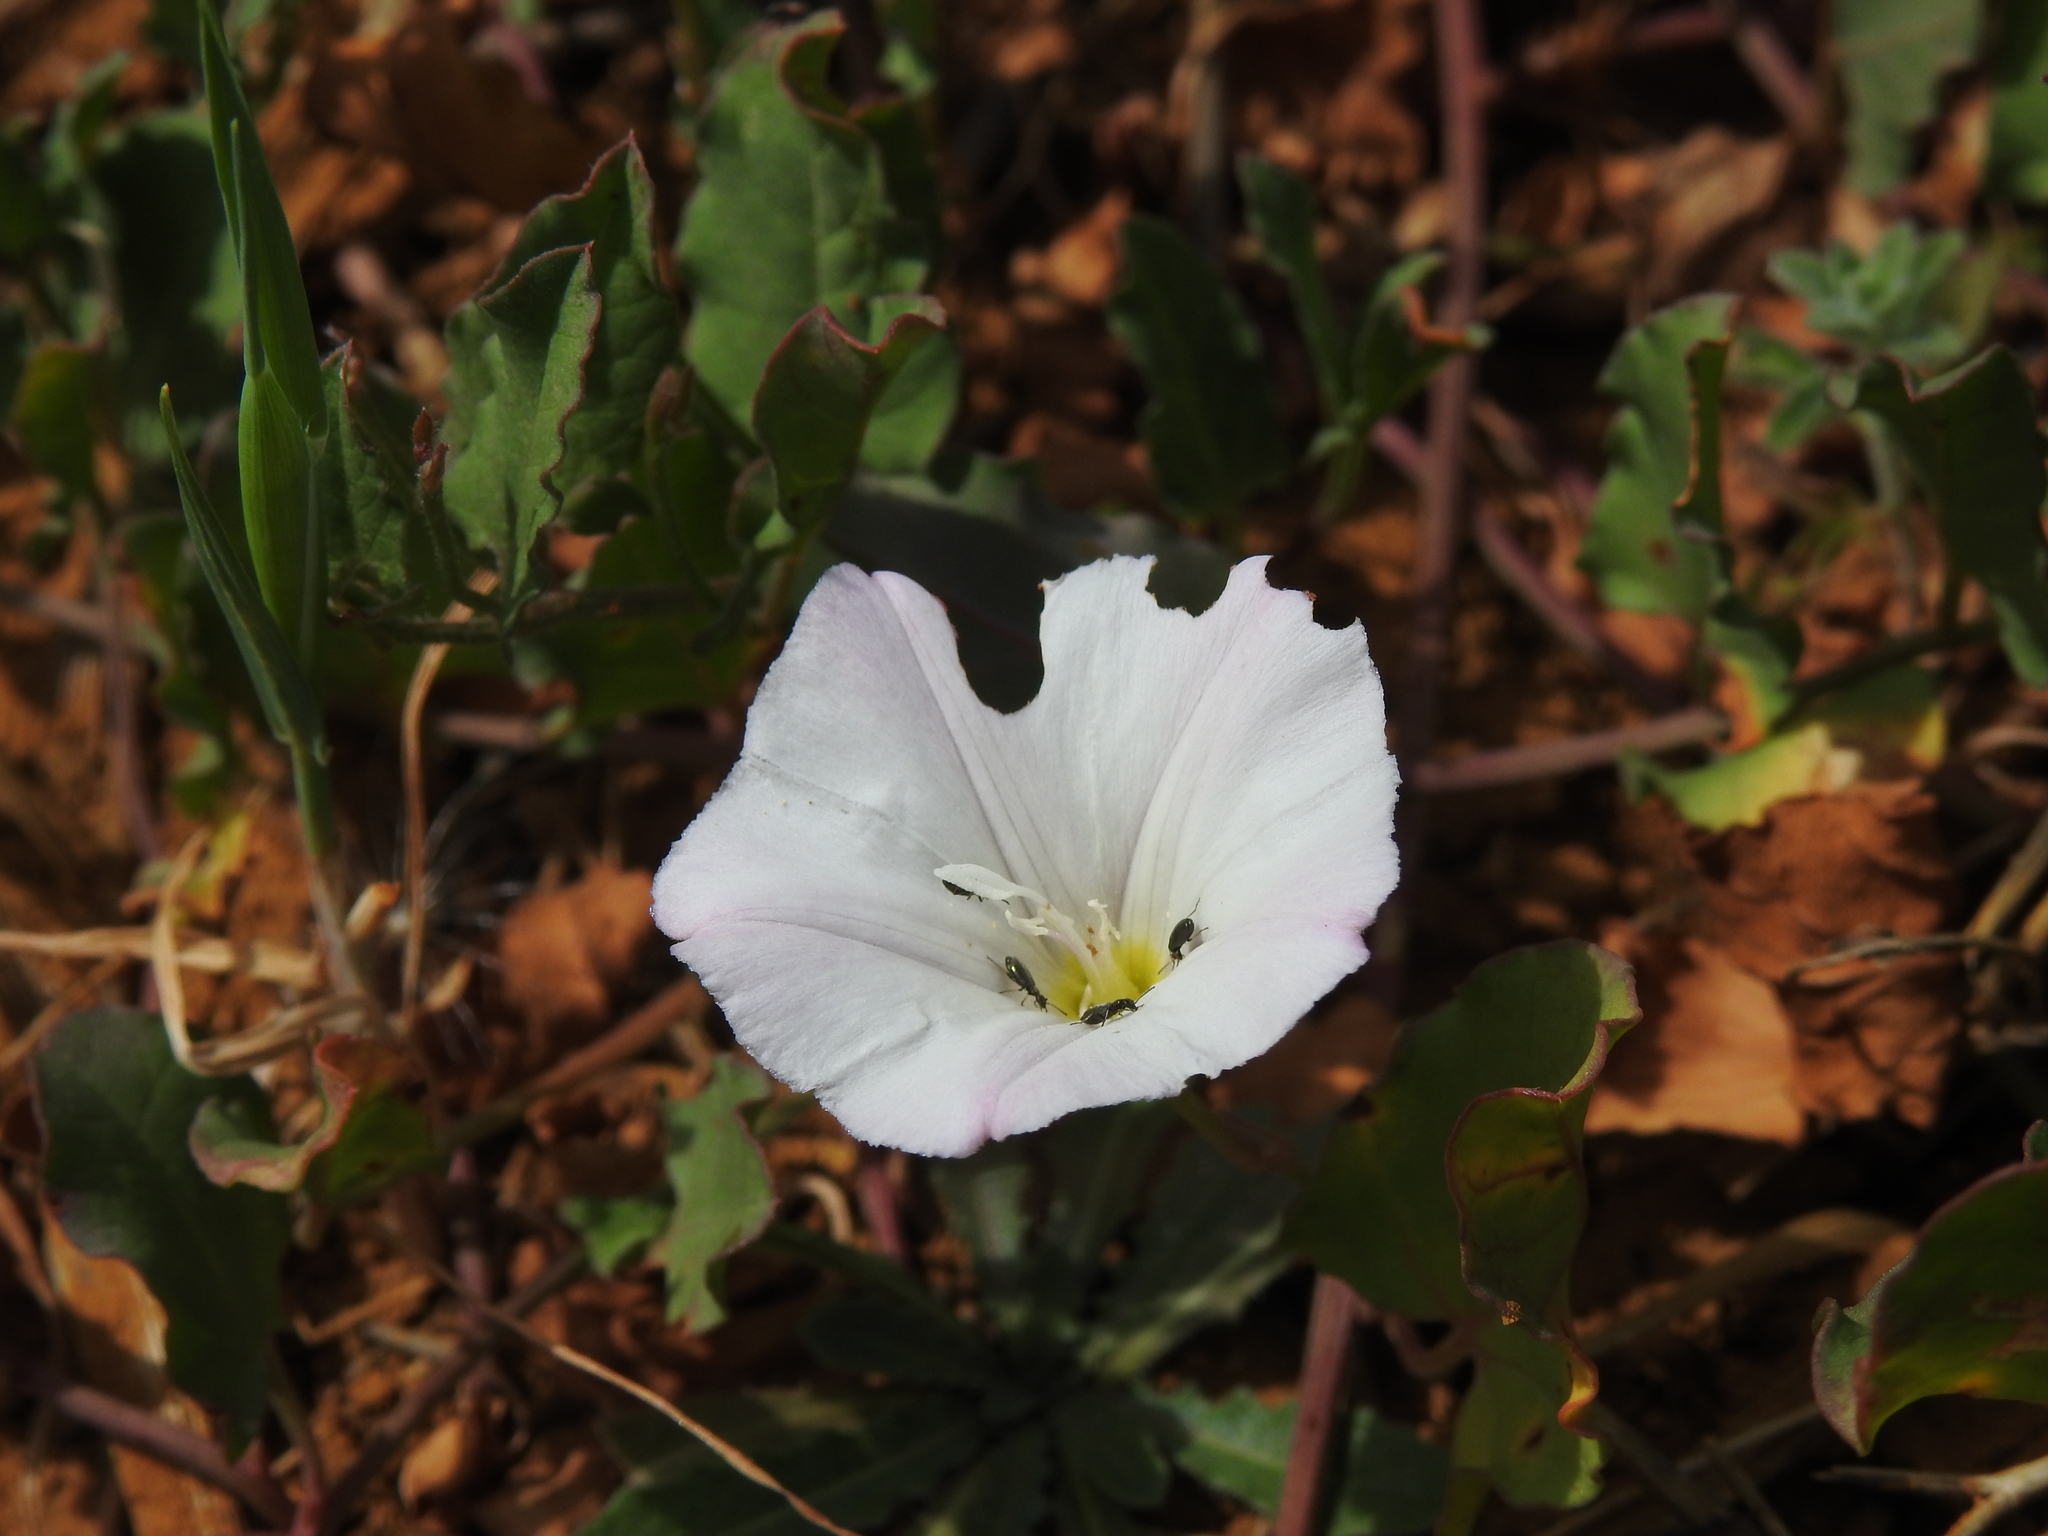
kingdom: Plantae
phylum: Tracheophyta
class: Magnoliopsida
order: Solanales
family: Convolvulaceae
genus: Convolvulus
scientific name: Convolvulus arvensis
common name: Field bindweed
